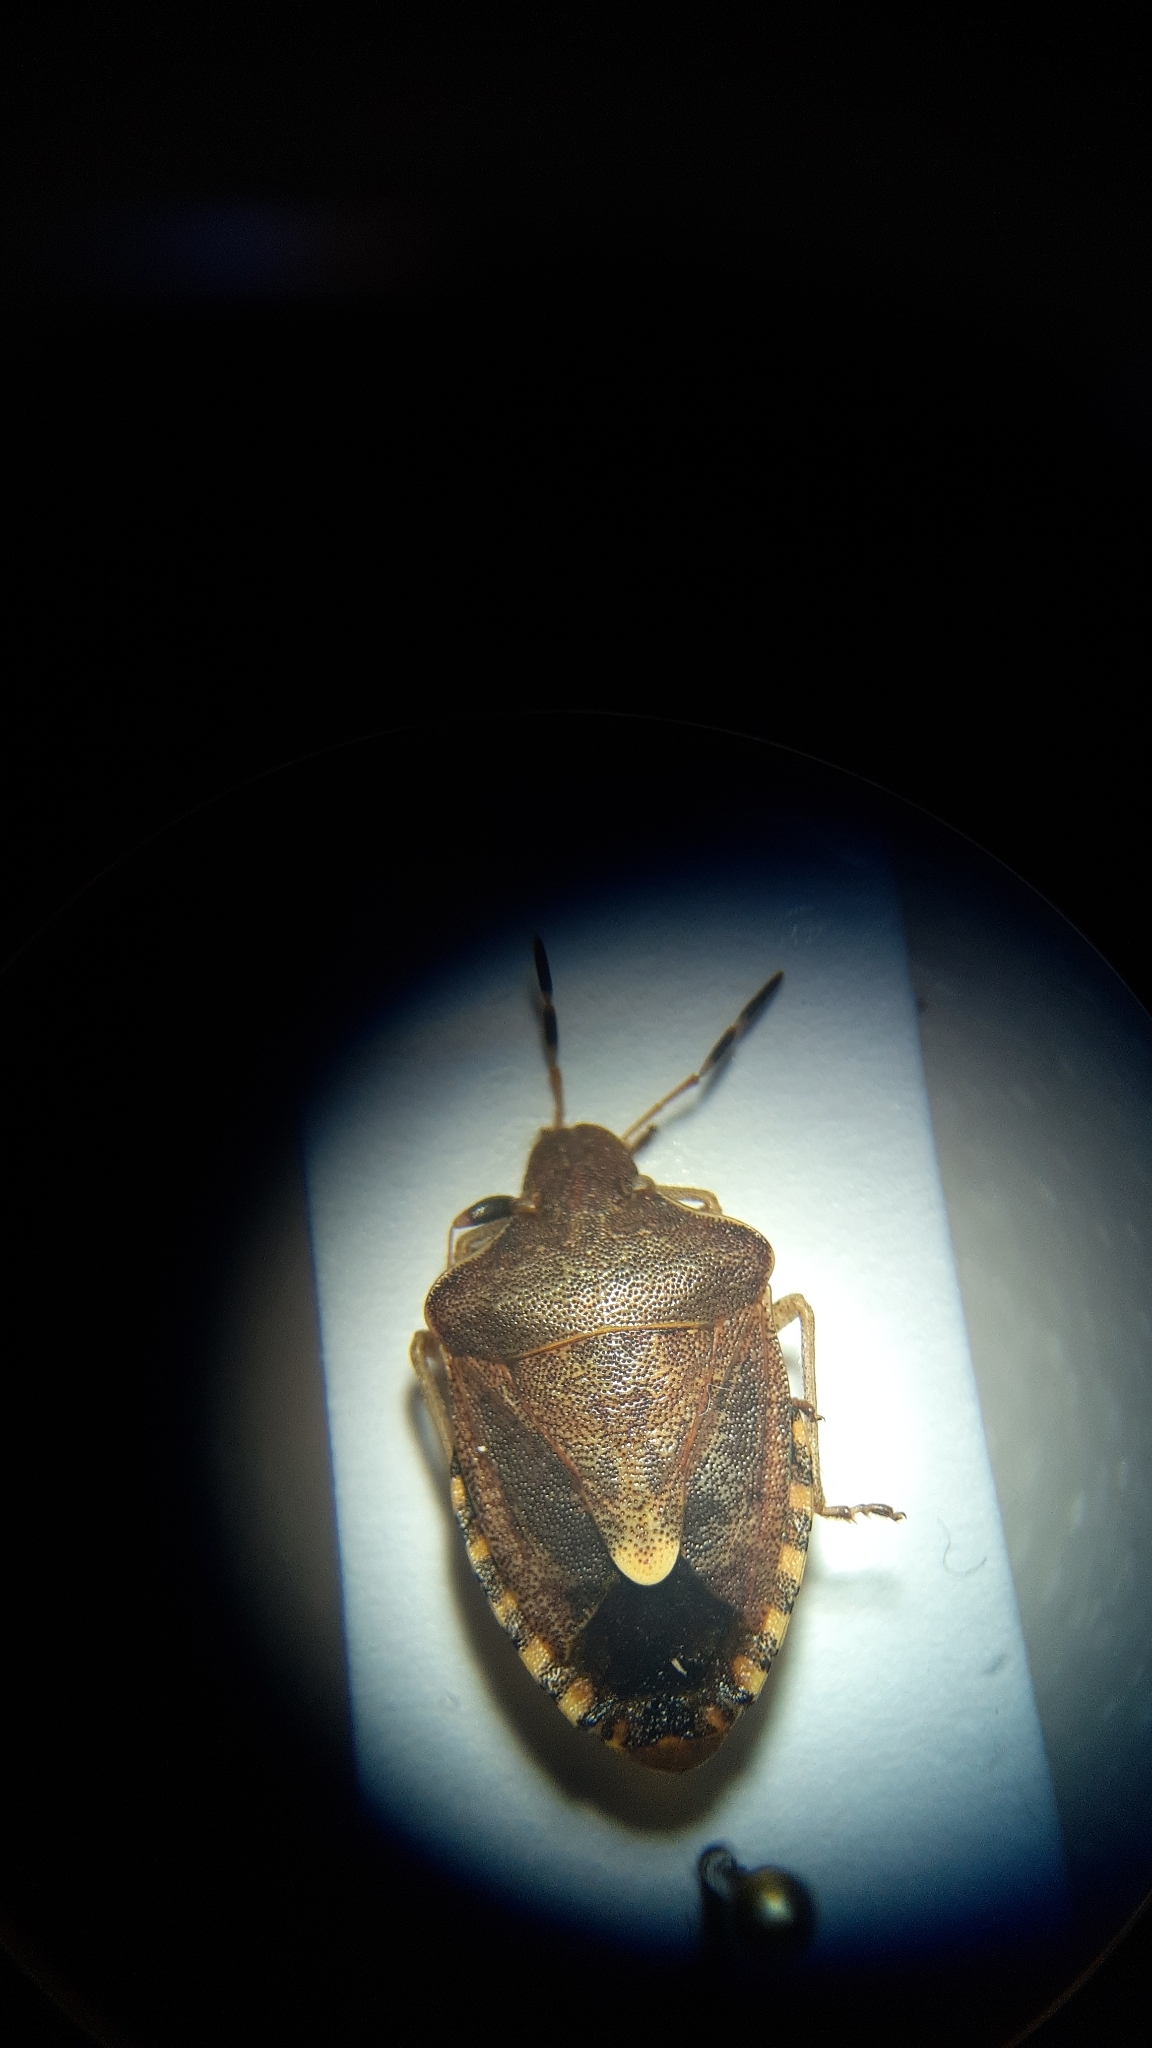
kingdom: Animalia
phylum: Arthropoda
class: Insecta
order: Hemiptera
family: Pentatomidae
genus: Holcostethus
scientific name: Holcostethus strictus
